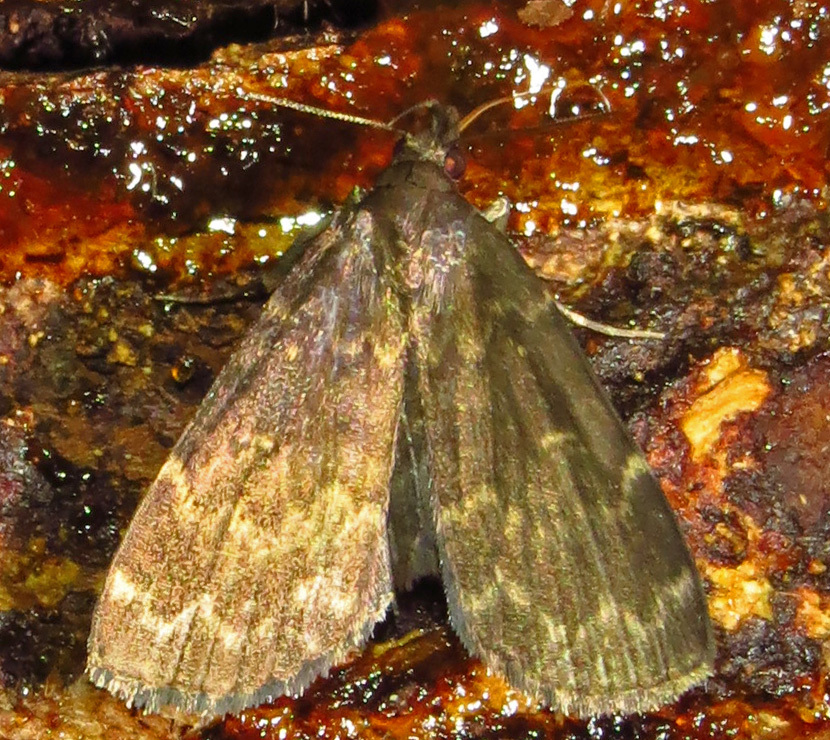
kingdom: Animalia
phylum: Arthropoda
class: Insecta
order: Lepidoptera
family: Erebidae
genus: Idia
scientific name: Idia lubricalis
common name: Twin-striped tabby
